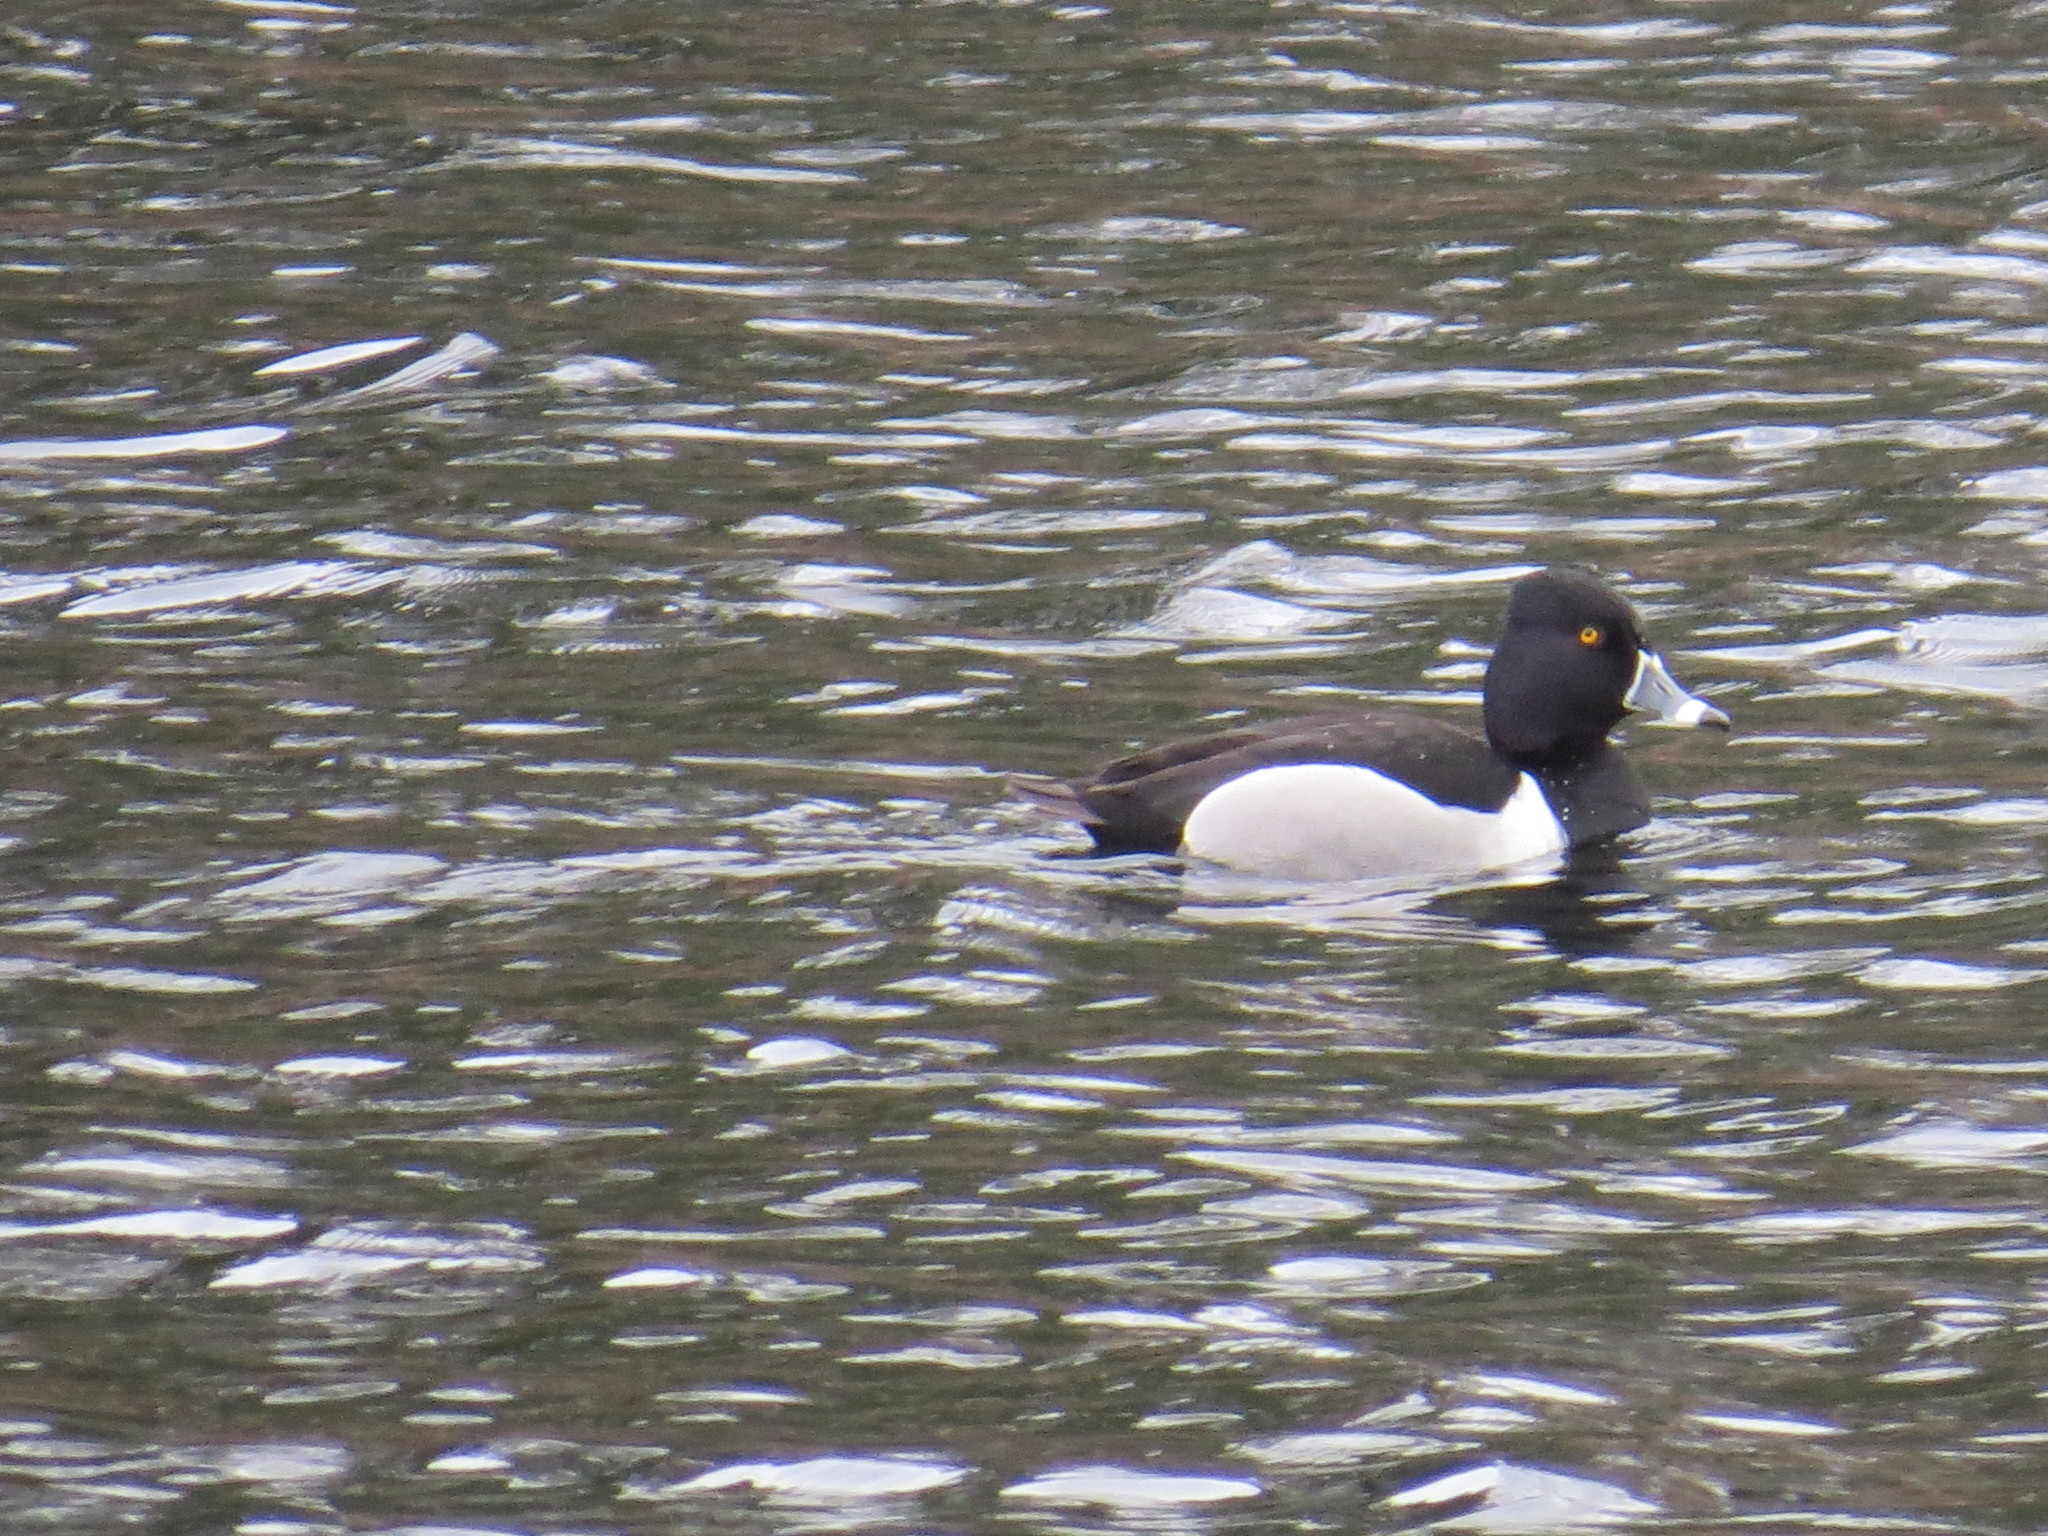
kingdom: Animalia
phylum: Chordata
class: Aves
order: Anseriformes
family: Anatidae
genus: Aythya
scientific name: Aythya collaris
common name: Ring-necked duck
